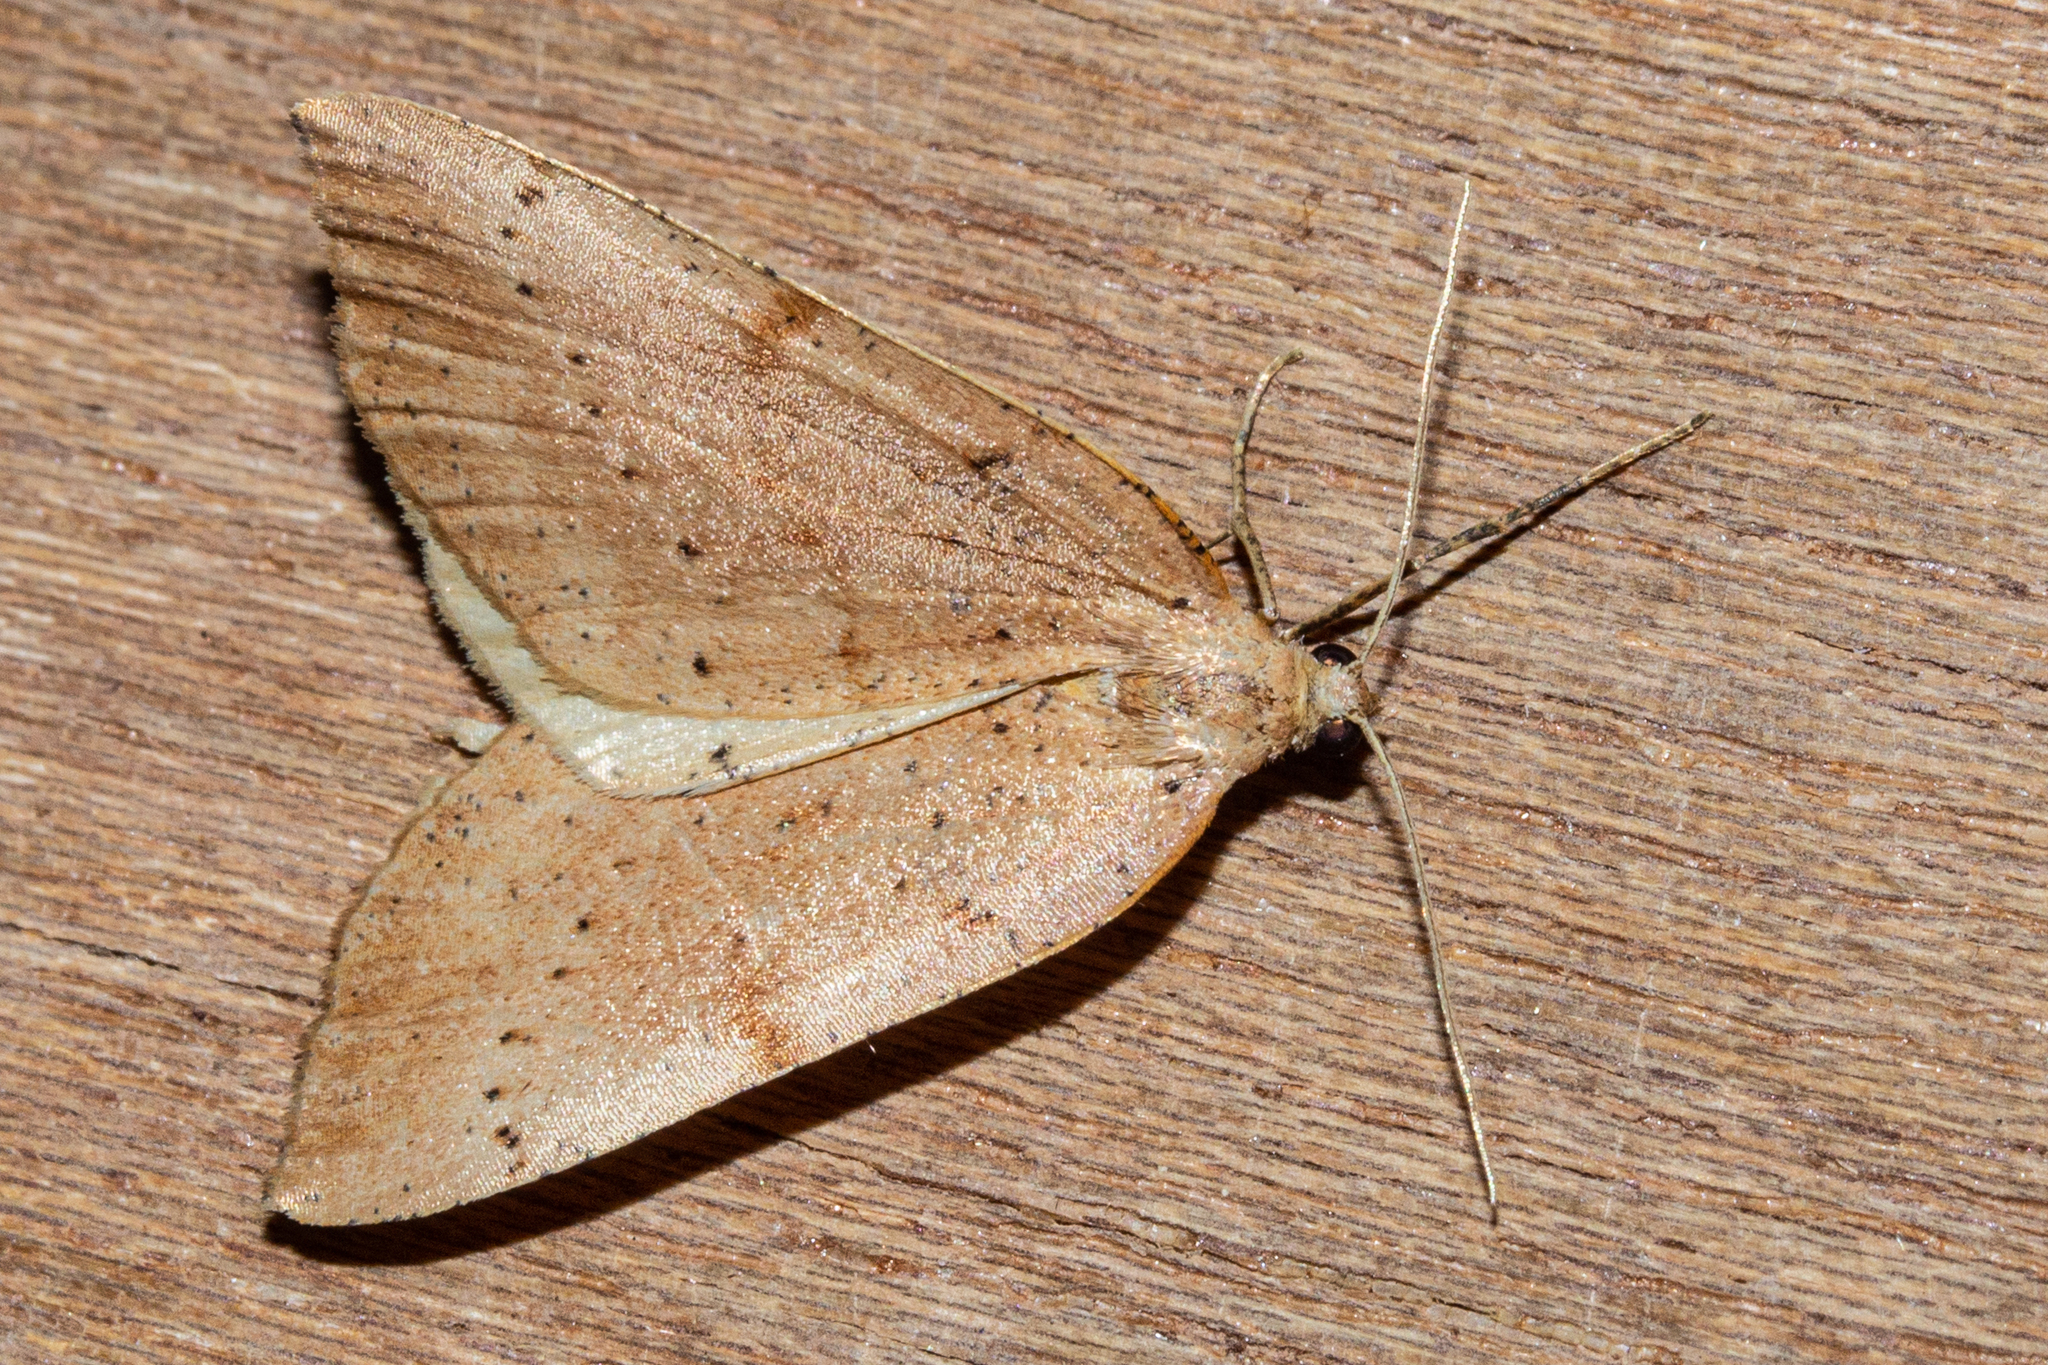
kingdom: Animalia
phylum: Arthropoda
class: Insecta
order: Lepidoptera
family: Geometridae
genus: Sestra
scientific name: Sestra humeraria
